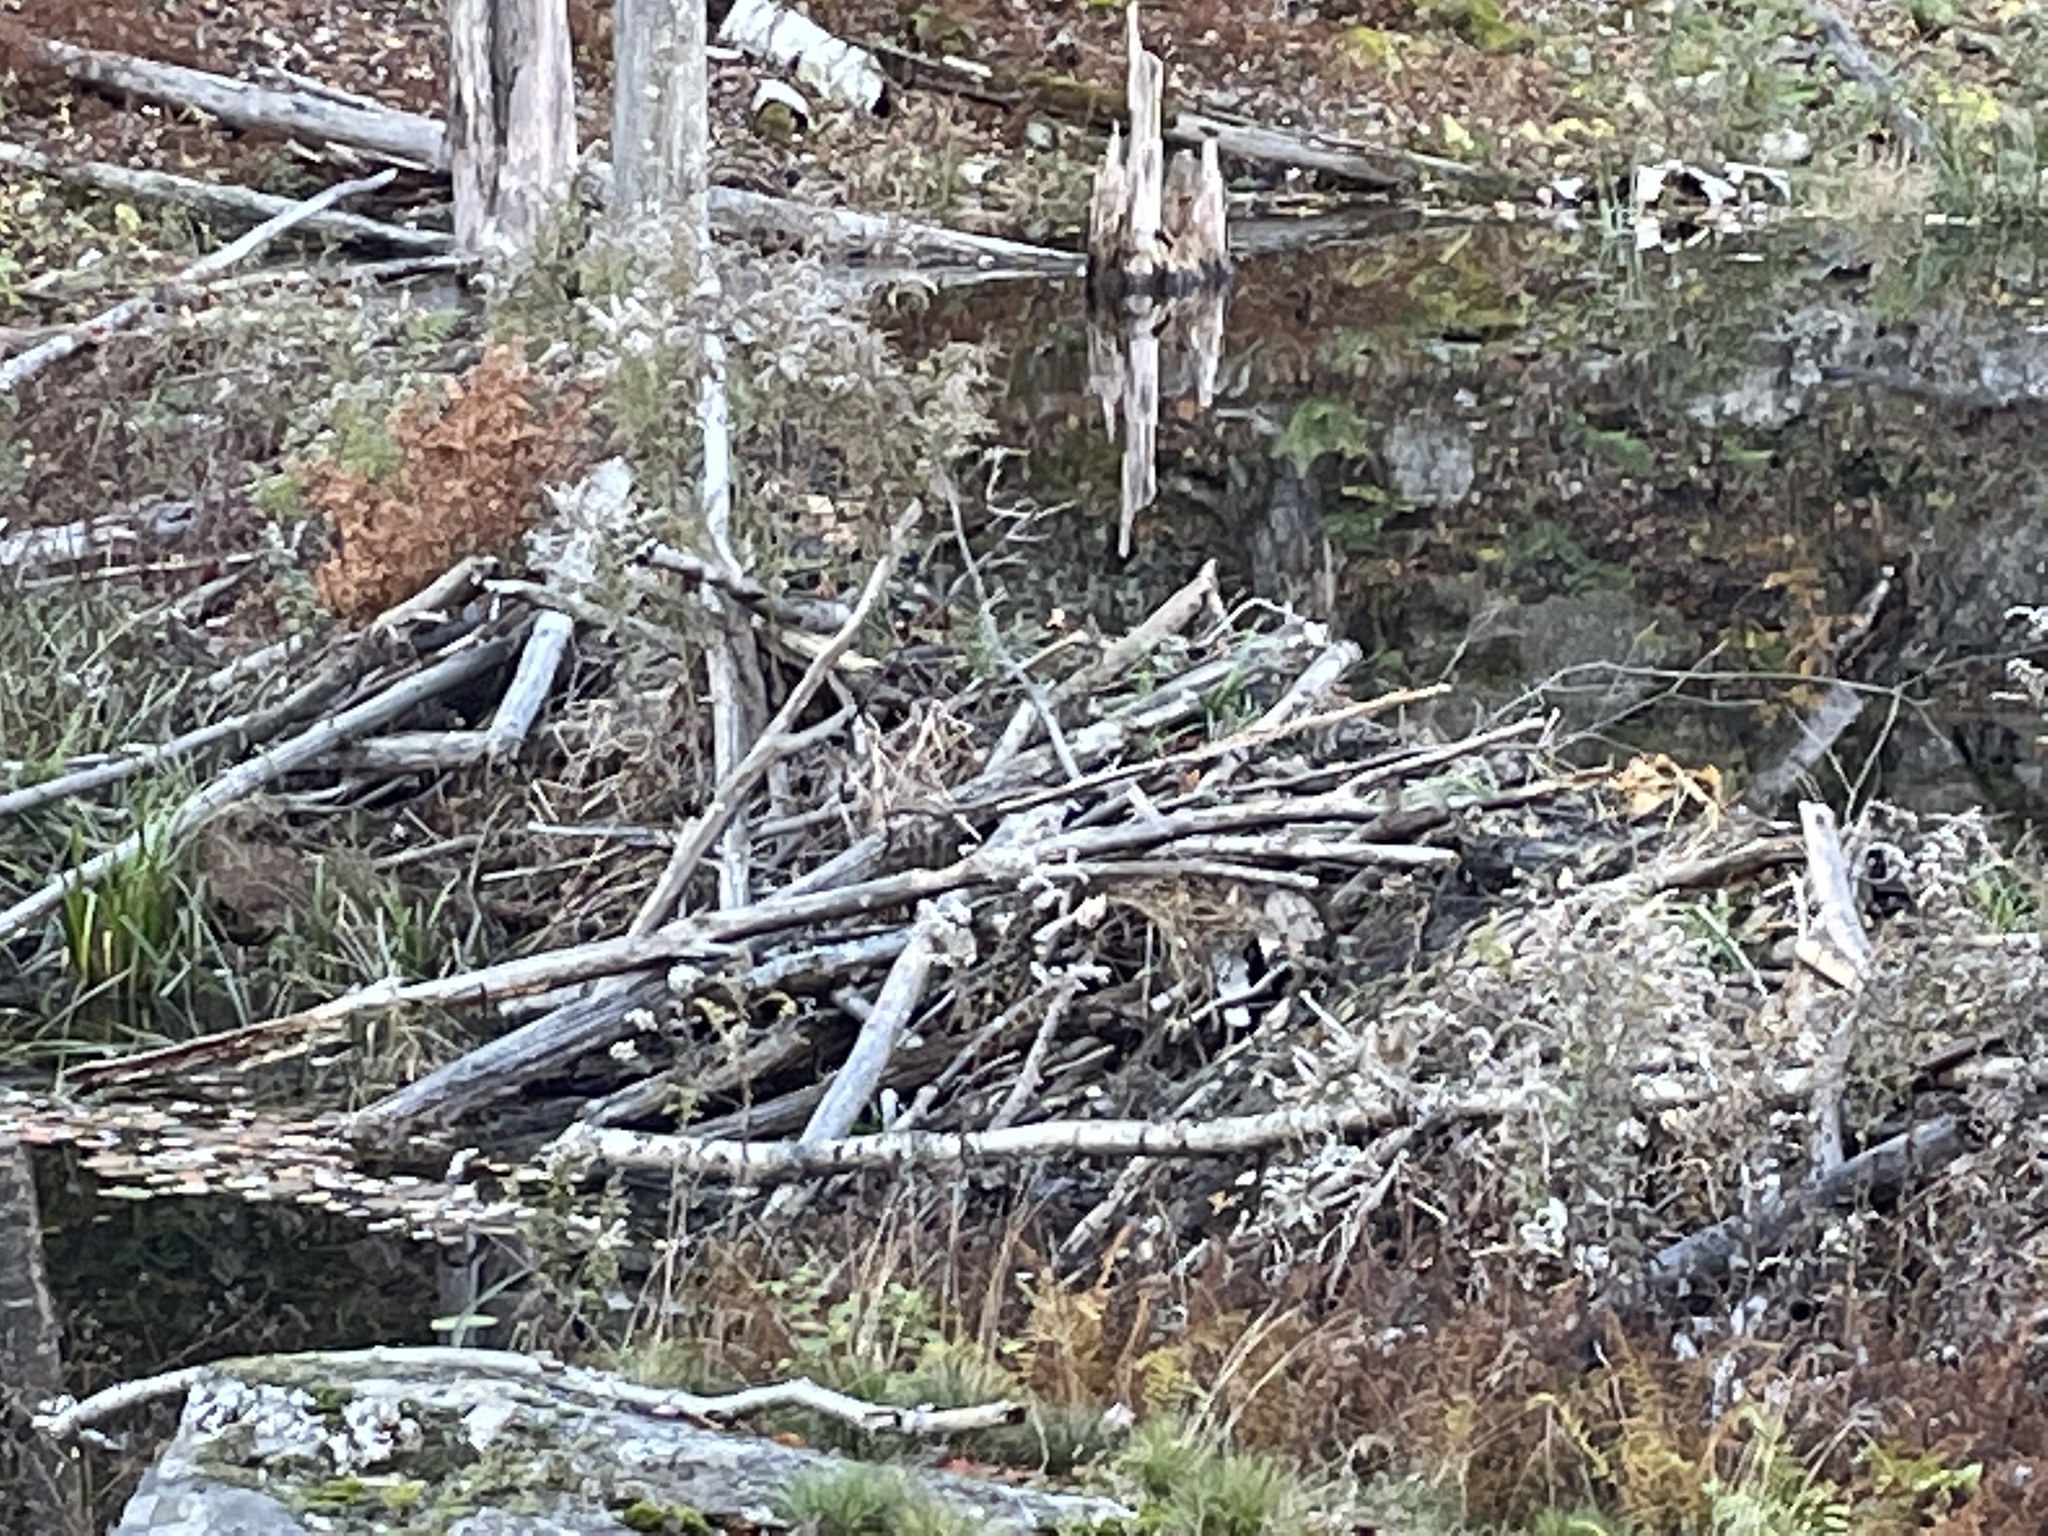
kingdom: Animalia
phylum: Chordata
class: Mammalia
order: Rodentia
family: Castoridae
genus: Castor
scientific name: Castor canadensis
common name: American beaver
